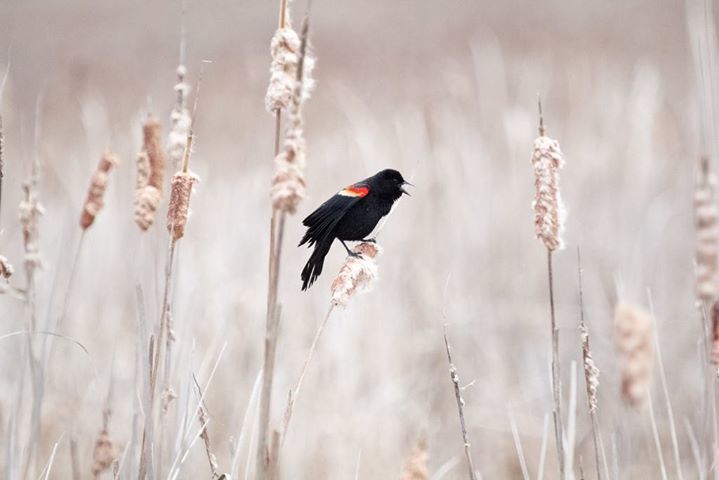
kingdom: Animalia
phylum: Chordata
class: Aves
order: Passeriformes
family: Icteridae
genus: Agelaius
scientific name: Agelaius phoeniceus
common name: Red-winged blackbird
